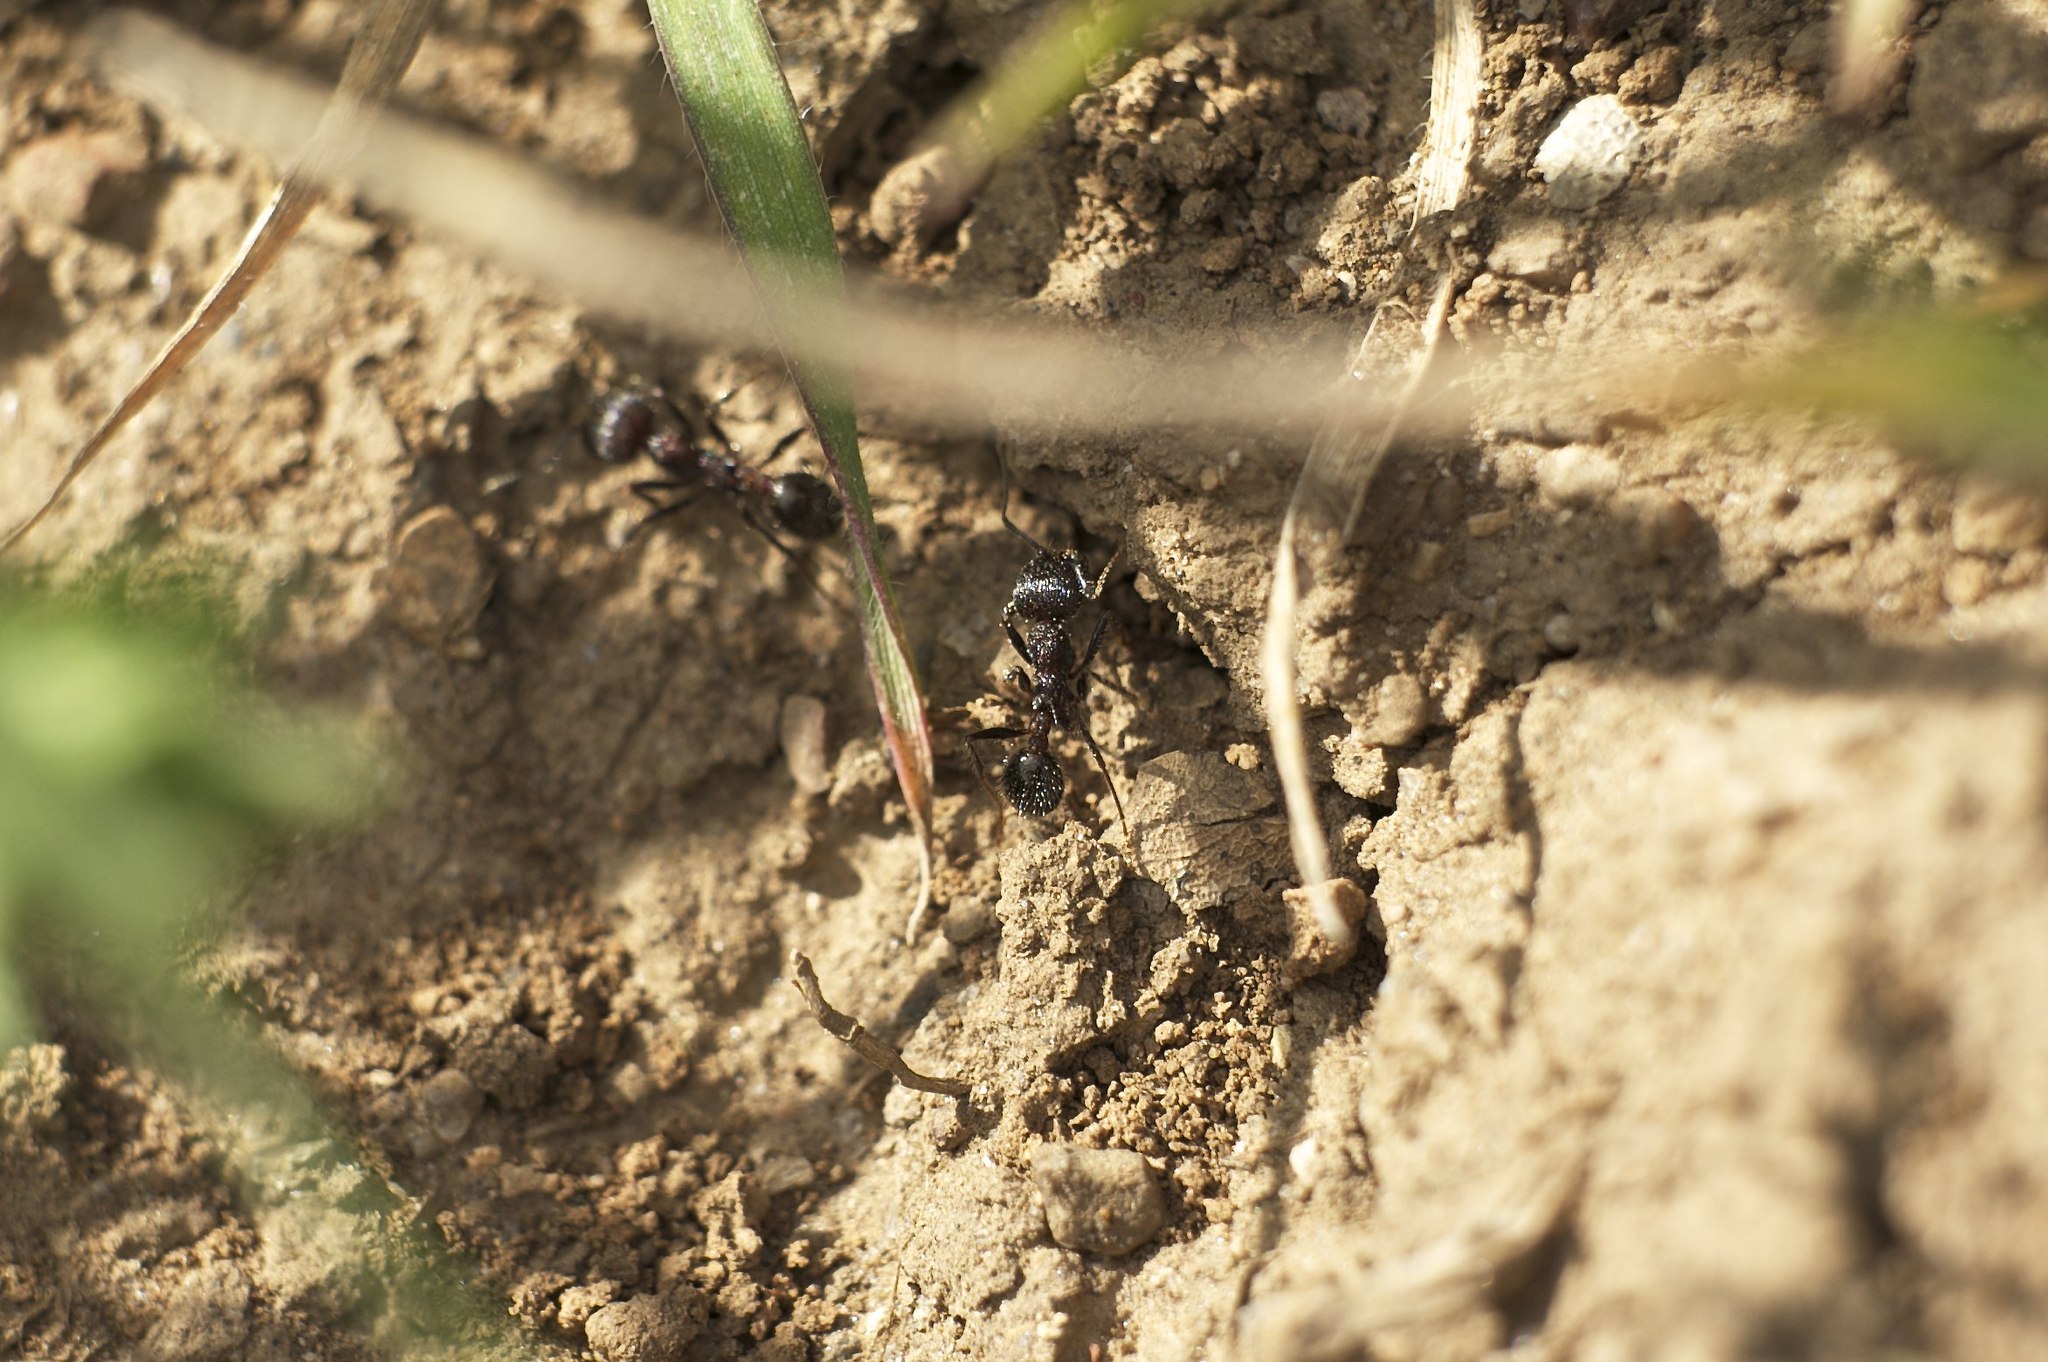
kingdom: Animalia
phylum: Arthropoda
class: Insecta
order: Hymenoptera
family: Formicidae
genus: Veromessor
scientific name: Veromessor andrei
